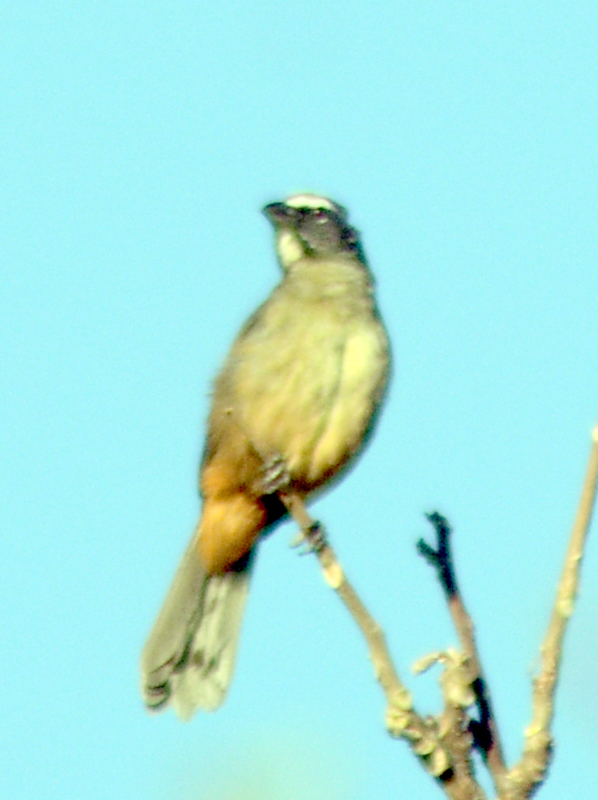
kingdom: Animalia
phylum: Chordata
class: Aves
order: Passeriformes
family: Thraupidae
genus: Saltator
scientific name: Saltator grandis
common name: Cinnamon-bellied saltator
